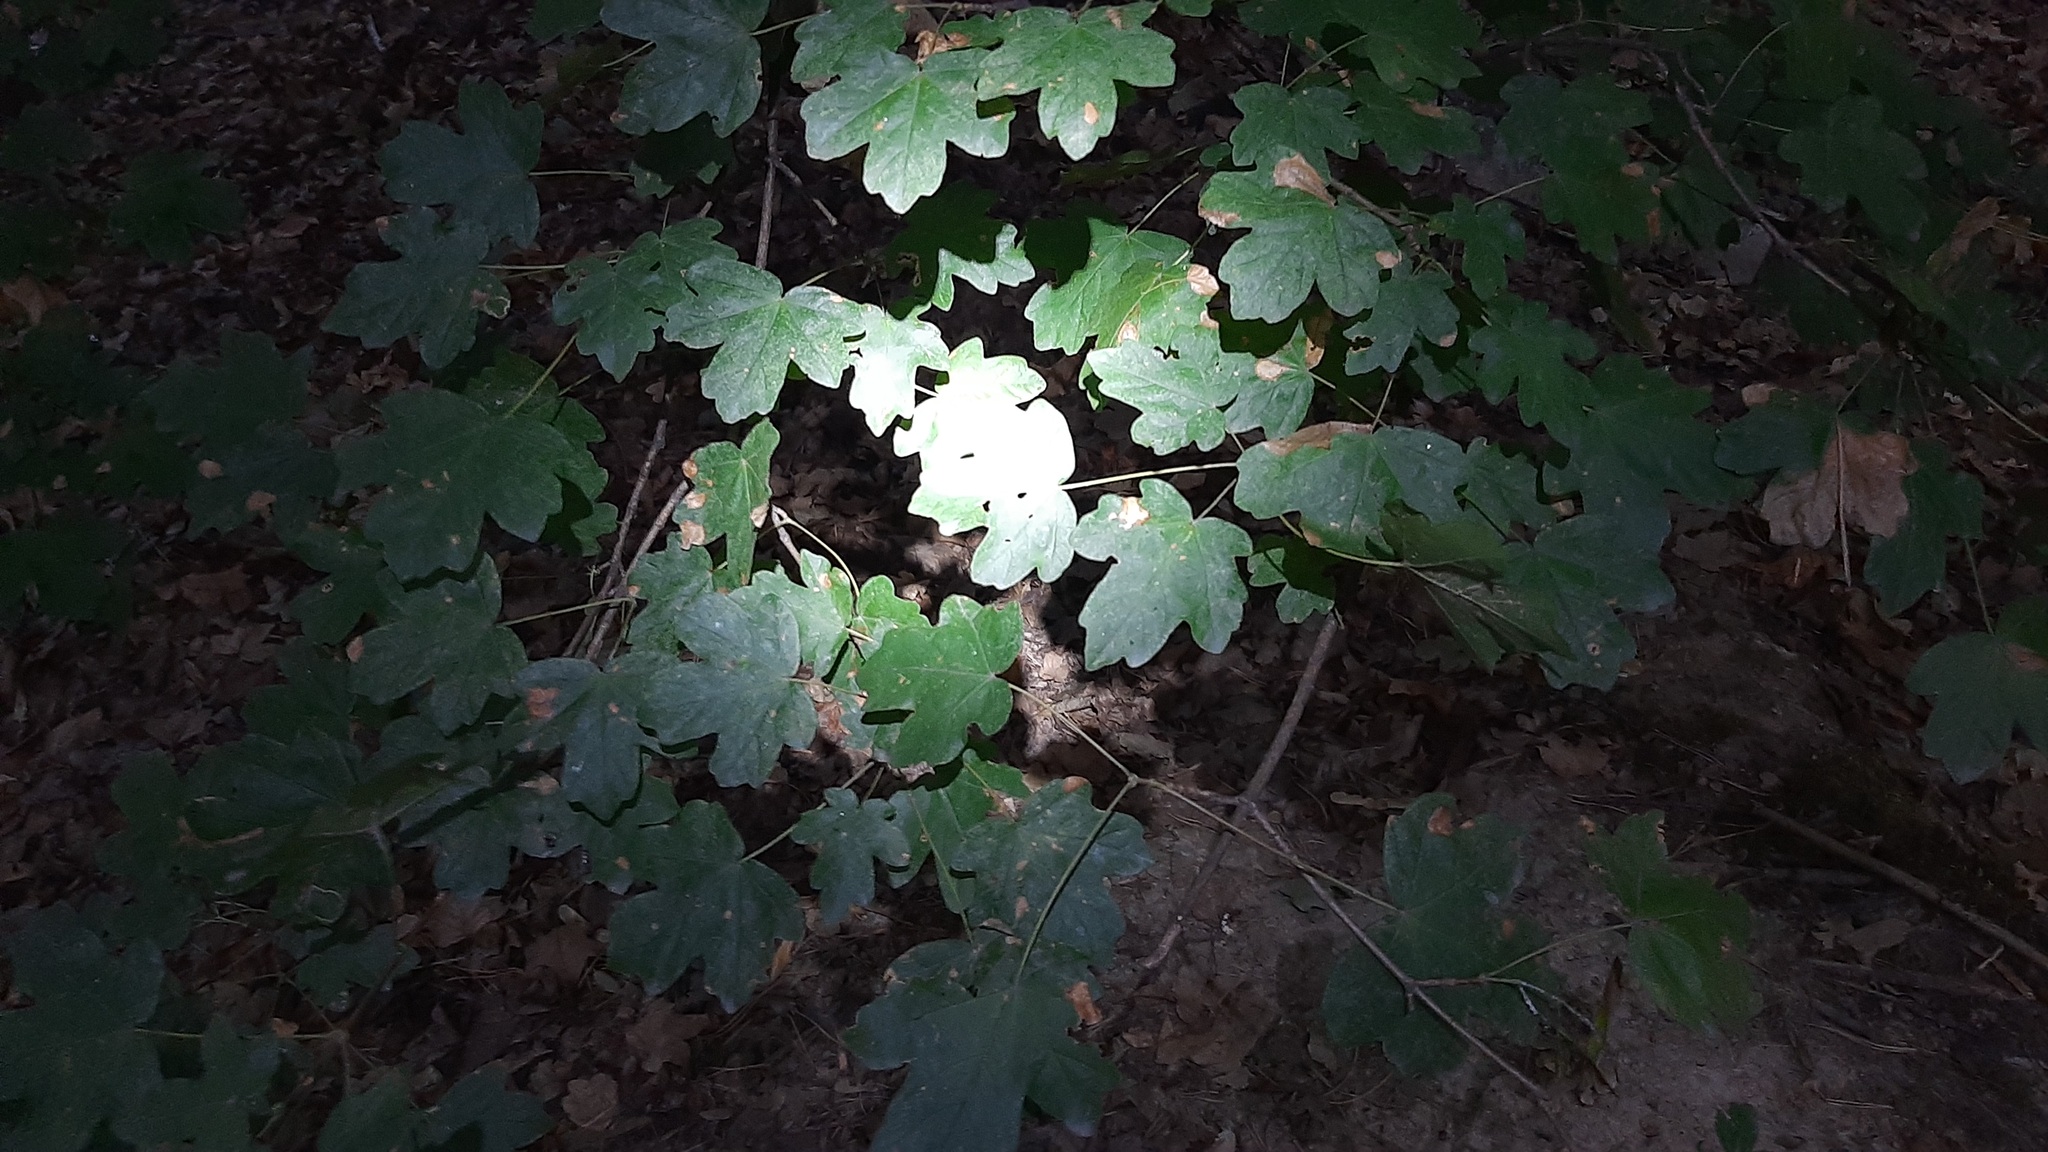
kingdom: Plantae
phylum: Tracheophyta
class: Magnoliopsida
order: Sapindales
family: Sapindaceae
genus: Acer
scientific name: Acer campestre
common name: Field maple
